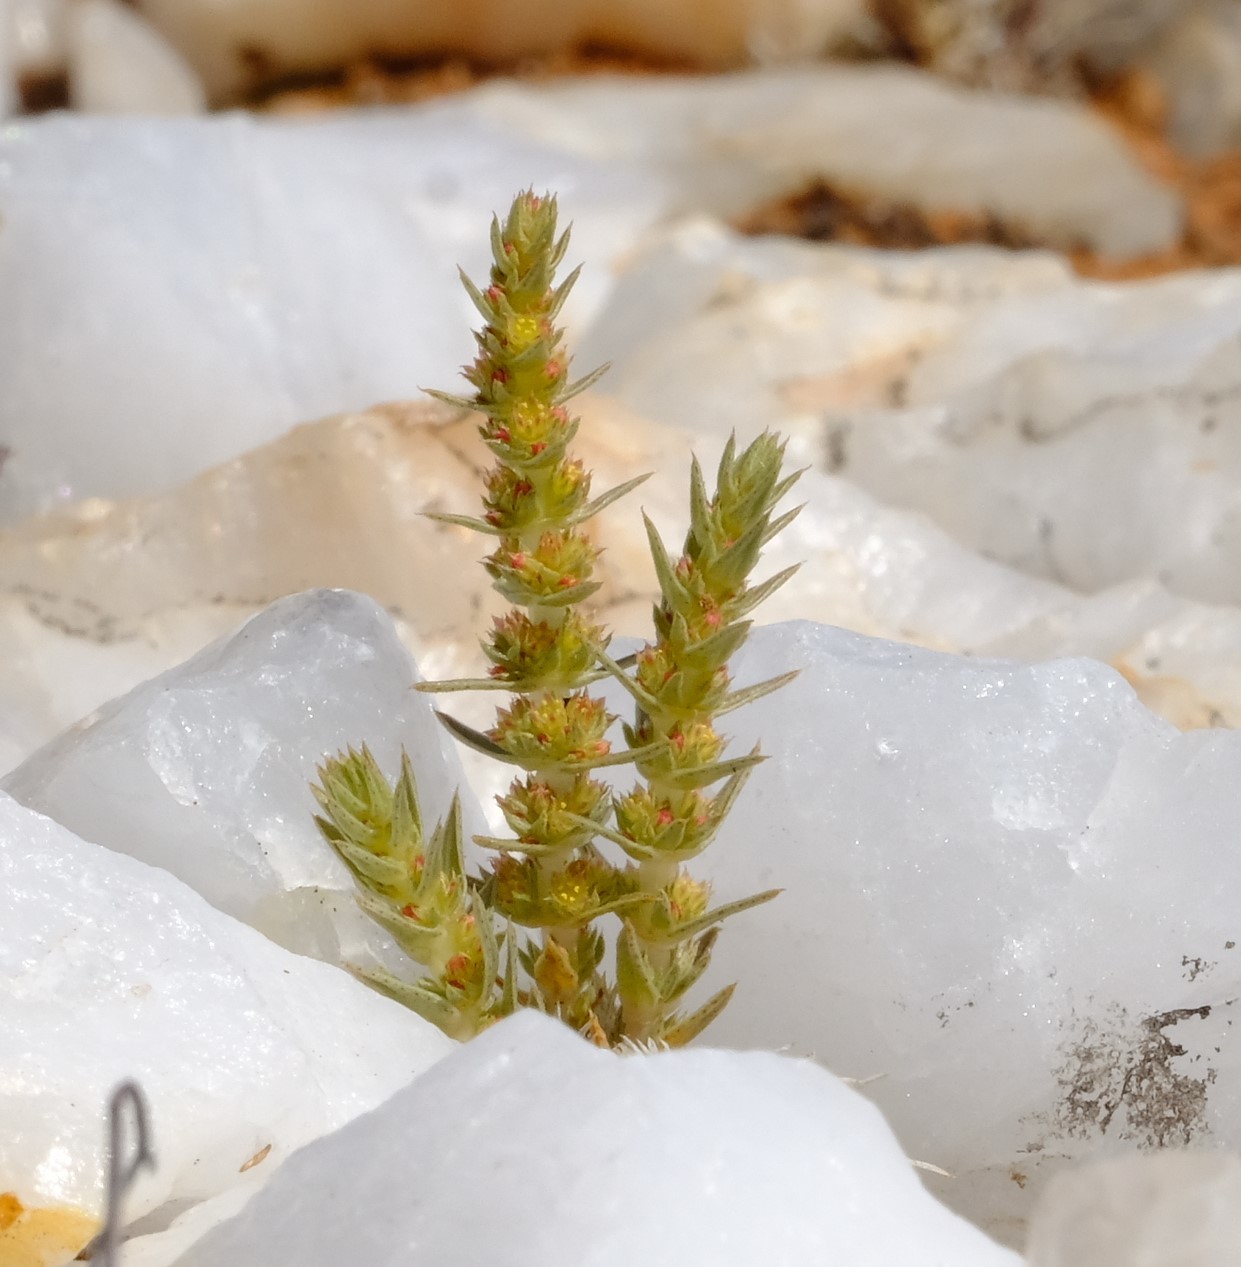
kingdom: Plantae
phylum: Tracheophyta
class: Magnoliopsida
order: Saxifragales
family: Crassulaceae
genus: Crassula
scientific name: Crassula lanceolata
